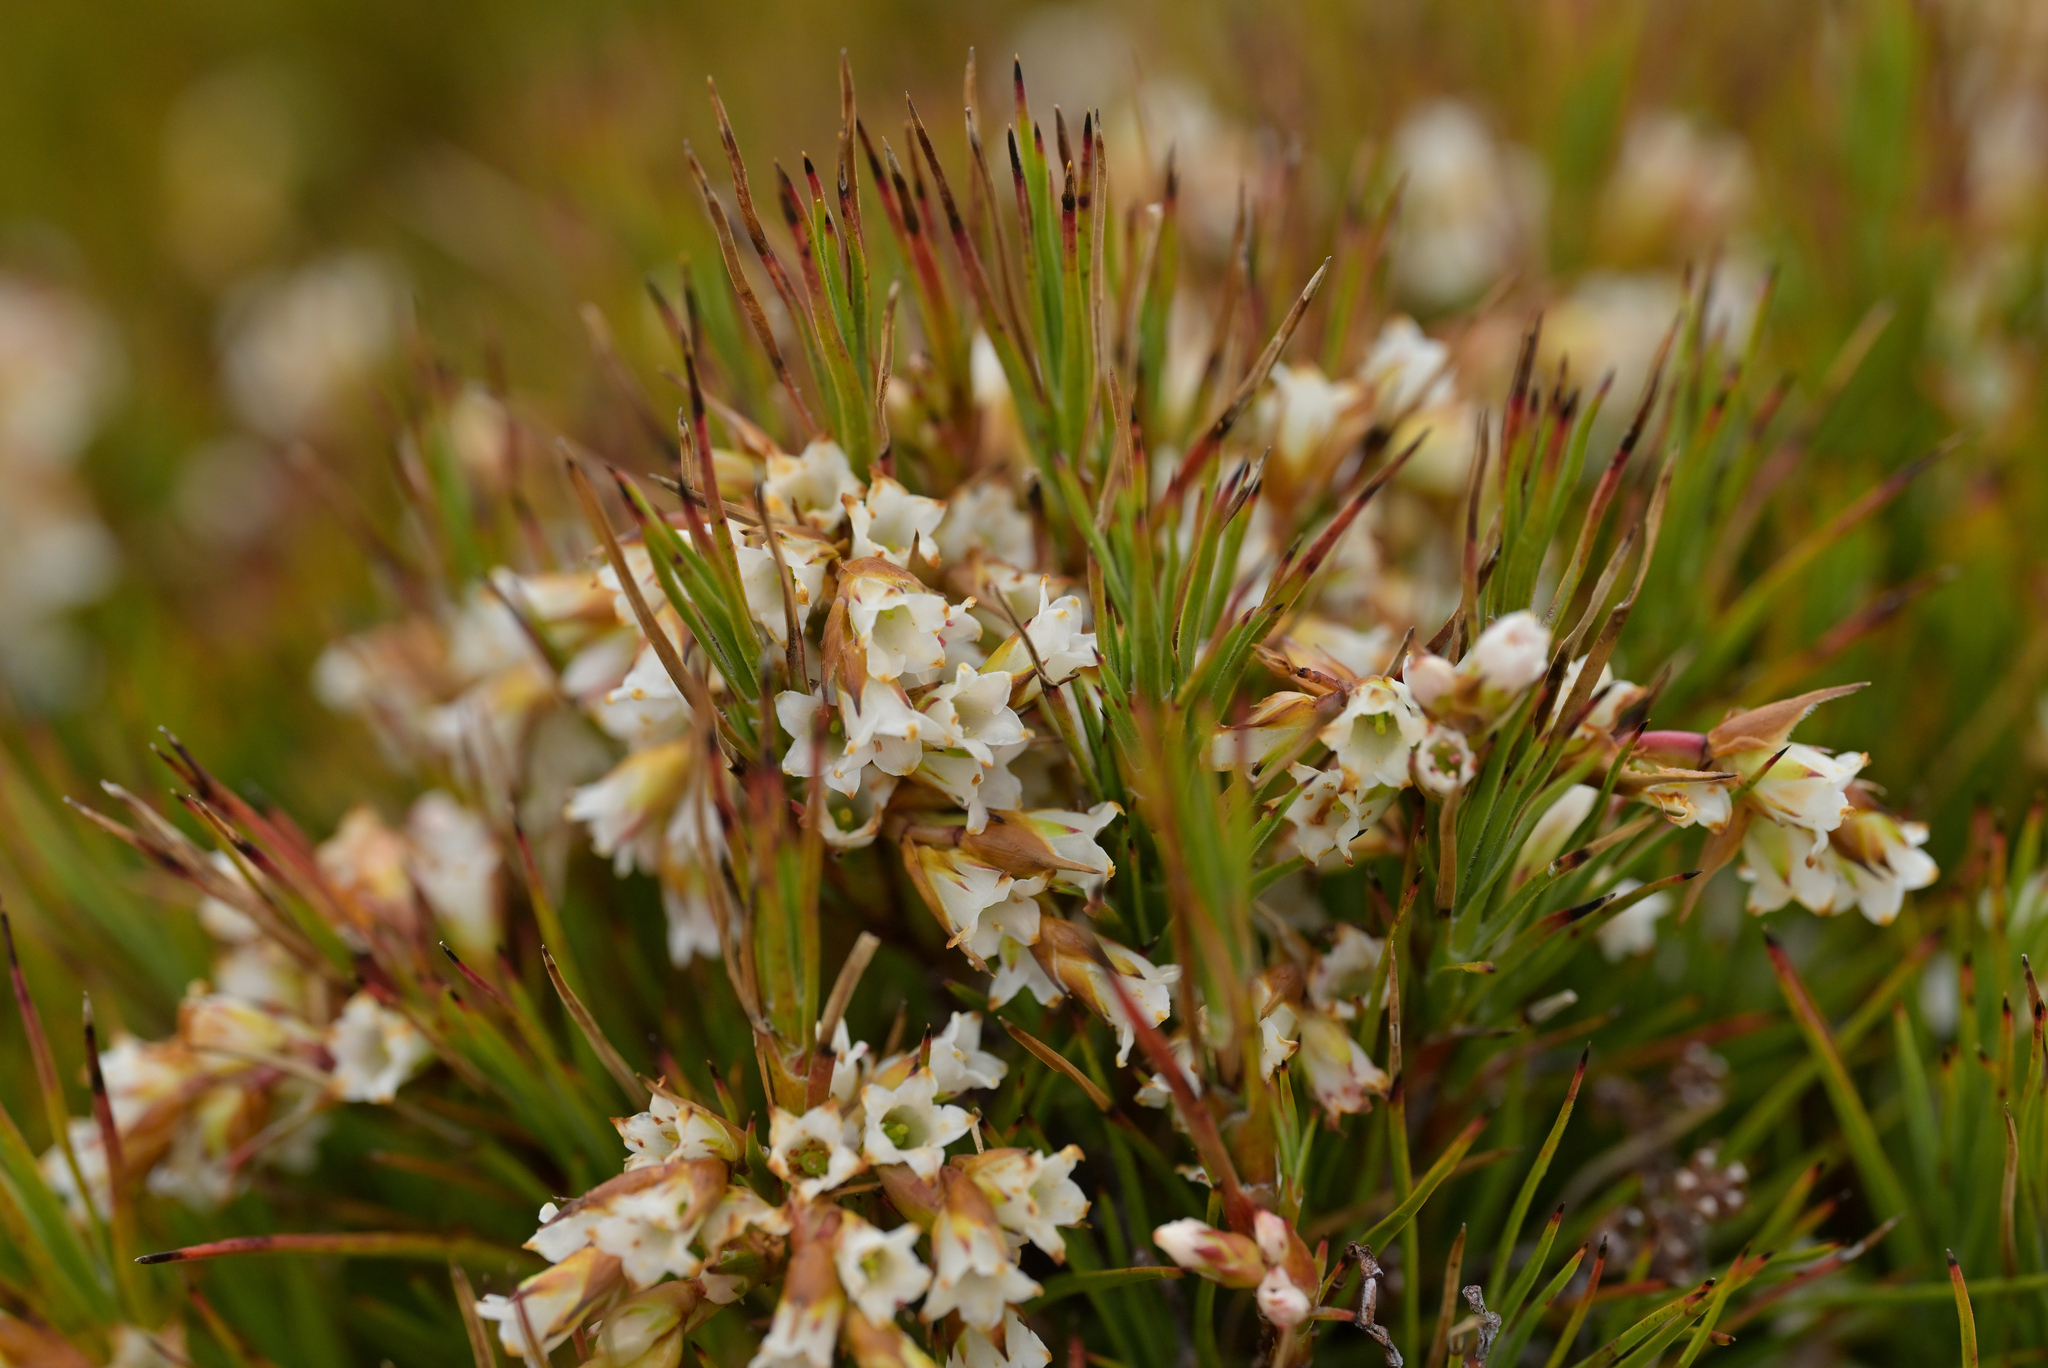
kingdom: Plantae
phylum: Tracheophyta
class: Magnoliopsida
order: Ericales
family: Ericaceae
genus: Dracophyllum
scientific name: Dracophyllum longifolium
